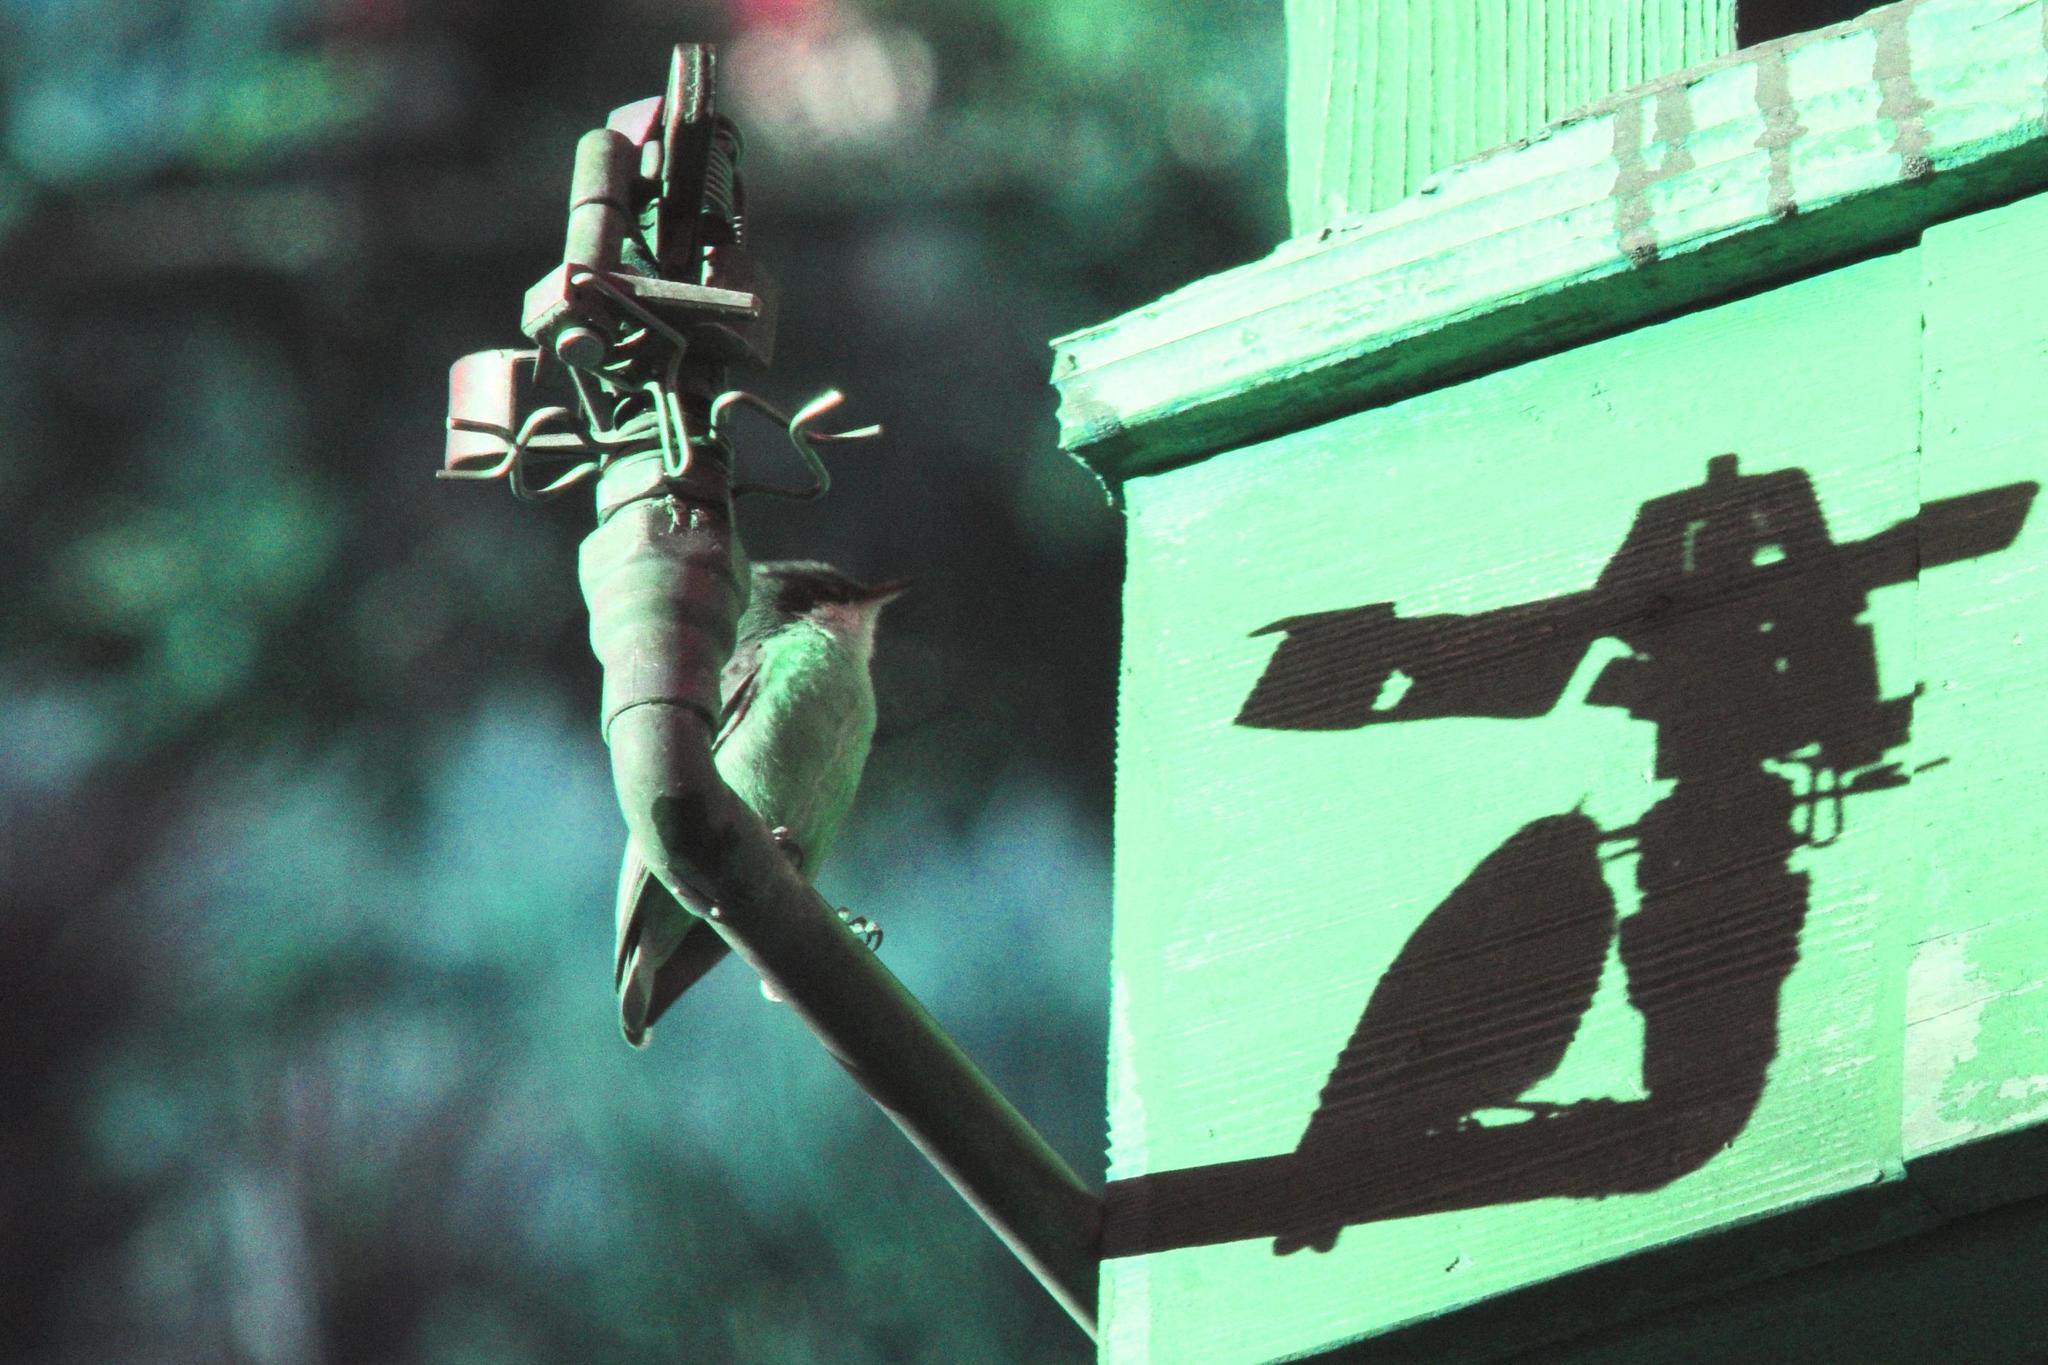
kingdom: Animalia
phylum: Chordata
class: Aves
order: Passeriformes
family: Sittidae
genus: Sitta
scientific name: Sitta pygmaea
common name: Pygmy nuthatch
